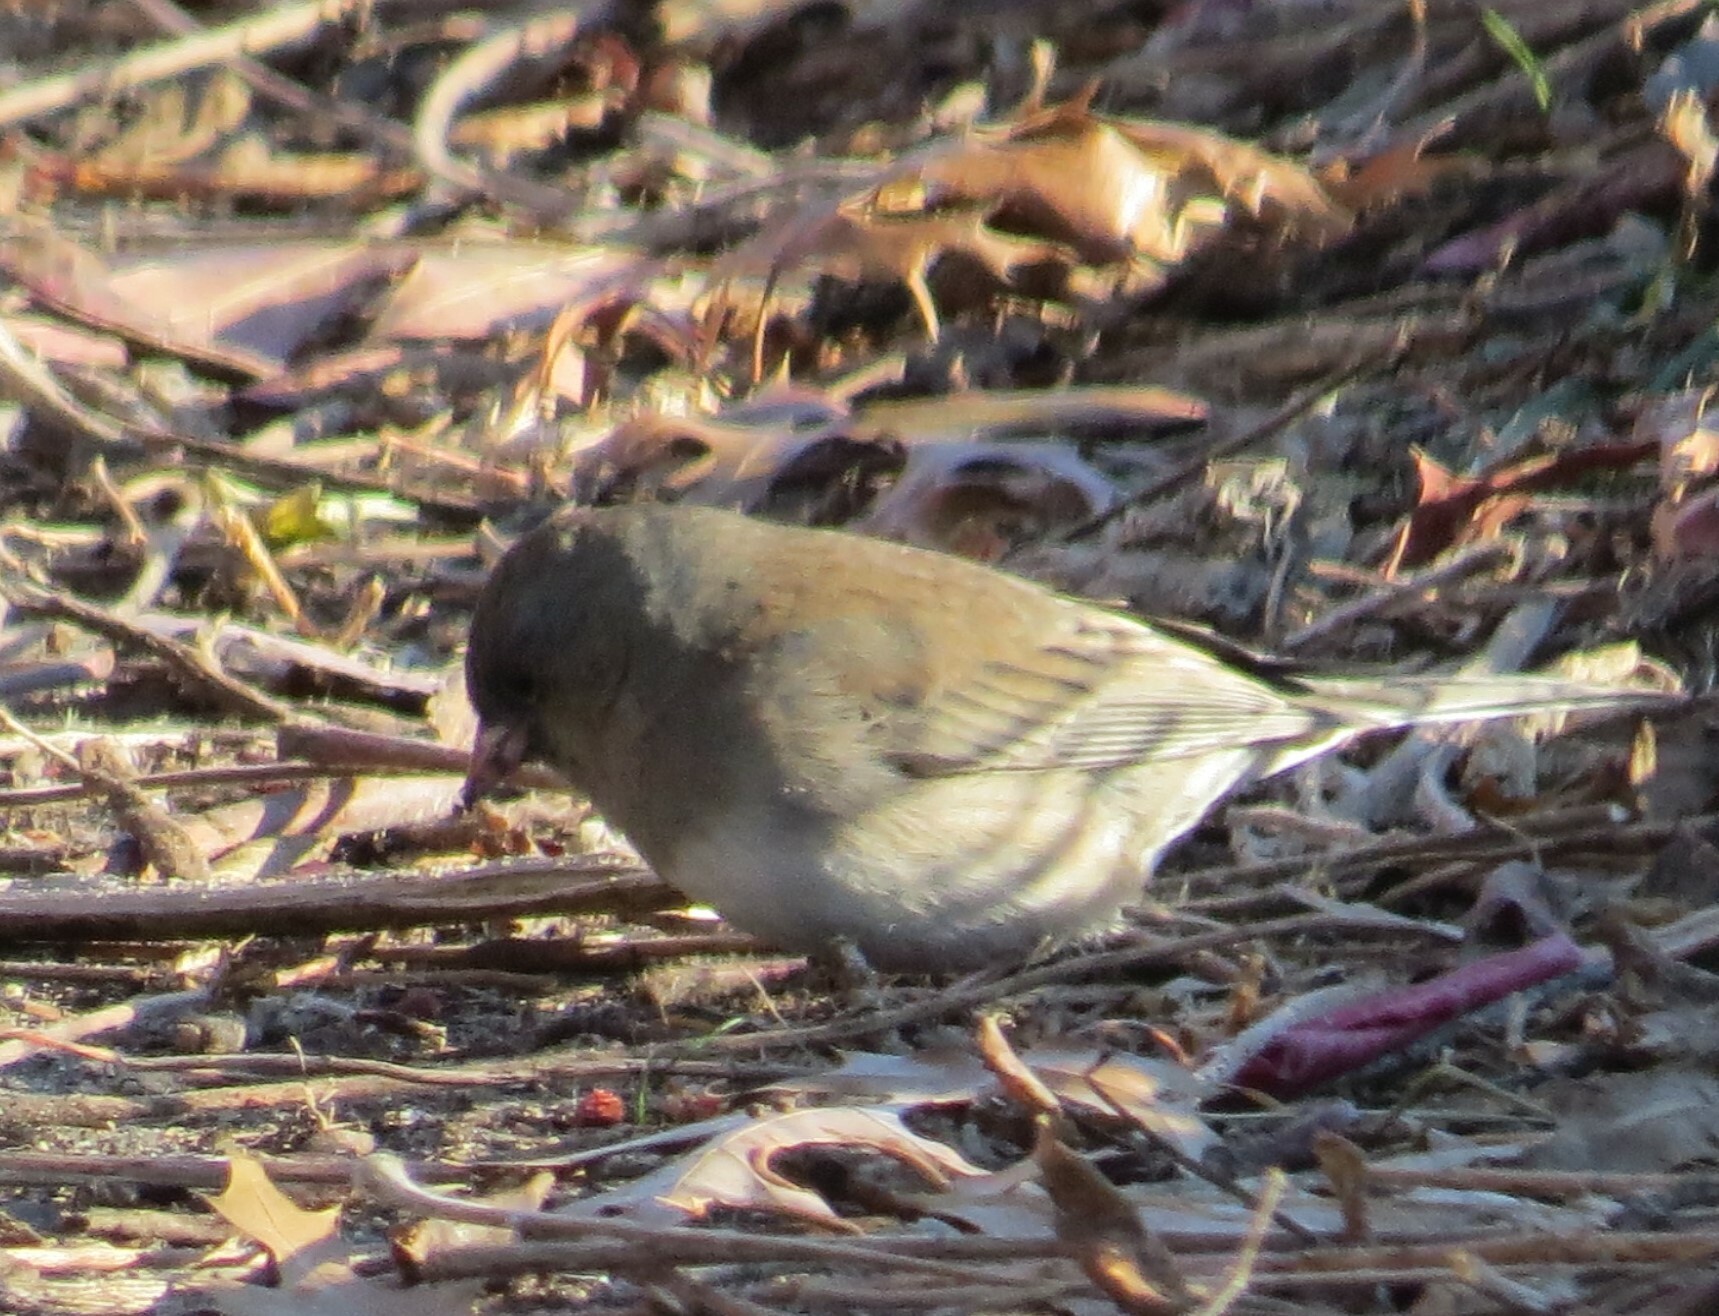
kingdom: Animalia
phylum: Chordata
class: Aves
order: Passeriformes
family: Passerellidae
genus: Junco
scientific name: Junco hyemalis
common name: Dark-eyed junco
